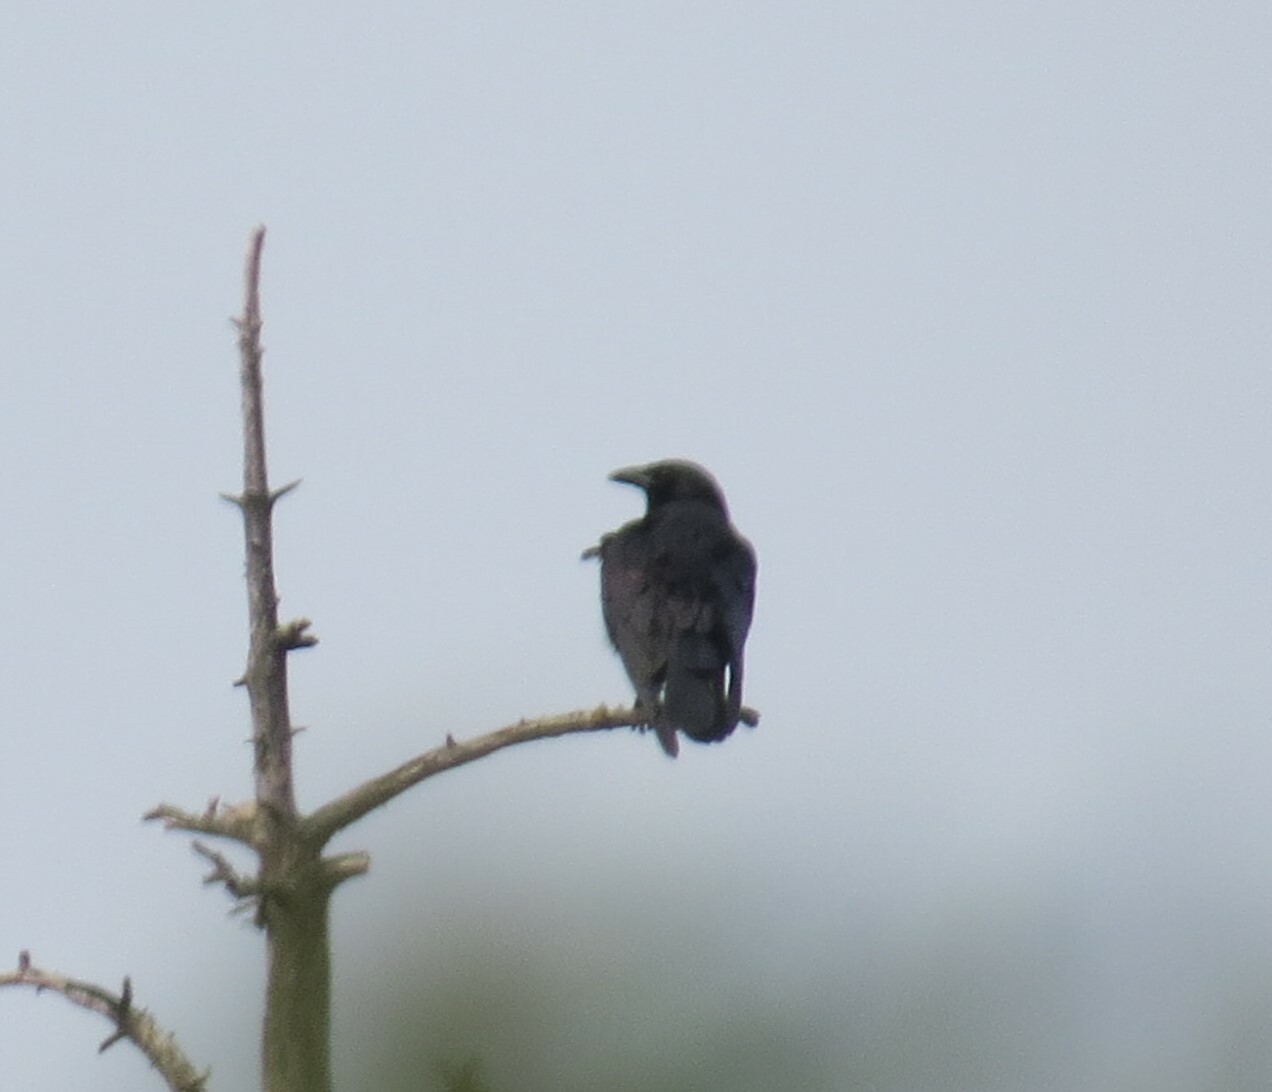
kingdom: Animalia
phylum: Chordata
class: Aves
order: Passeriformes
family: Corvidae
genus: Corvus
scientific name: Corvus brachyrhynchos
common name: American crow
